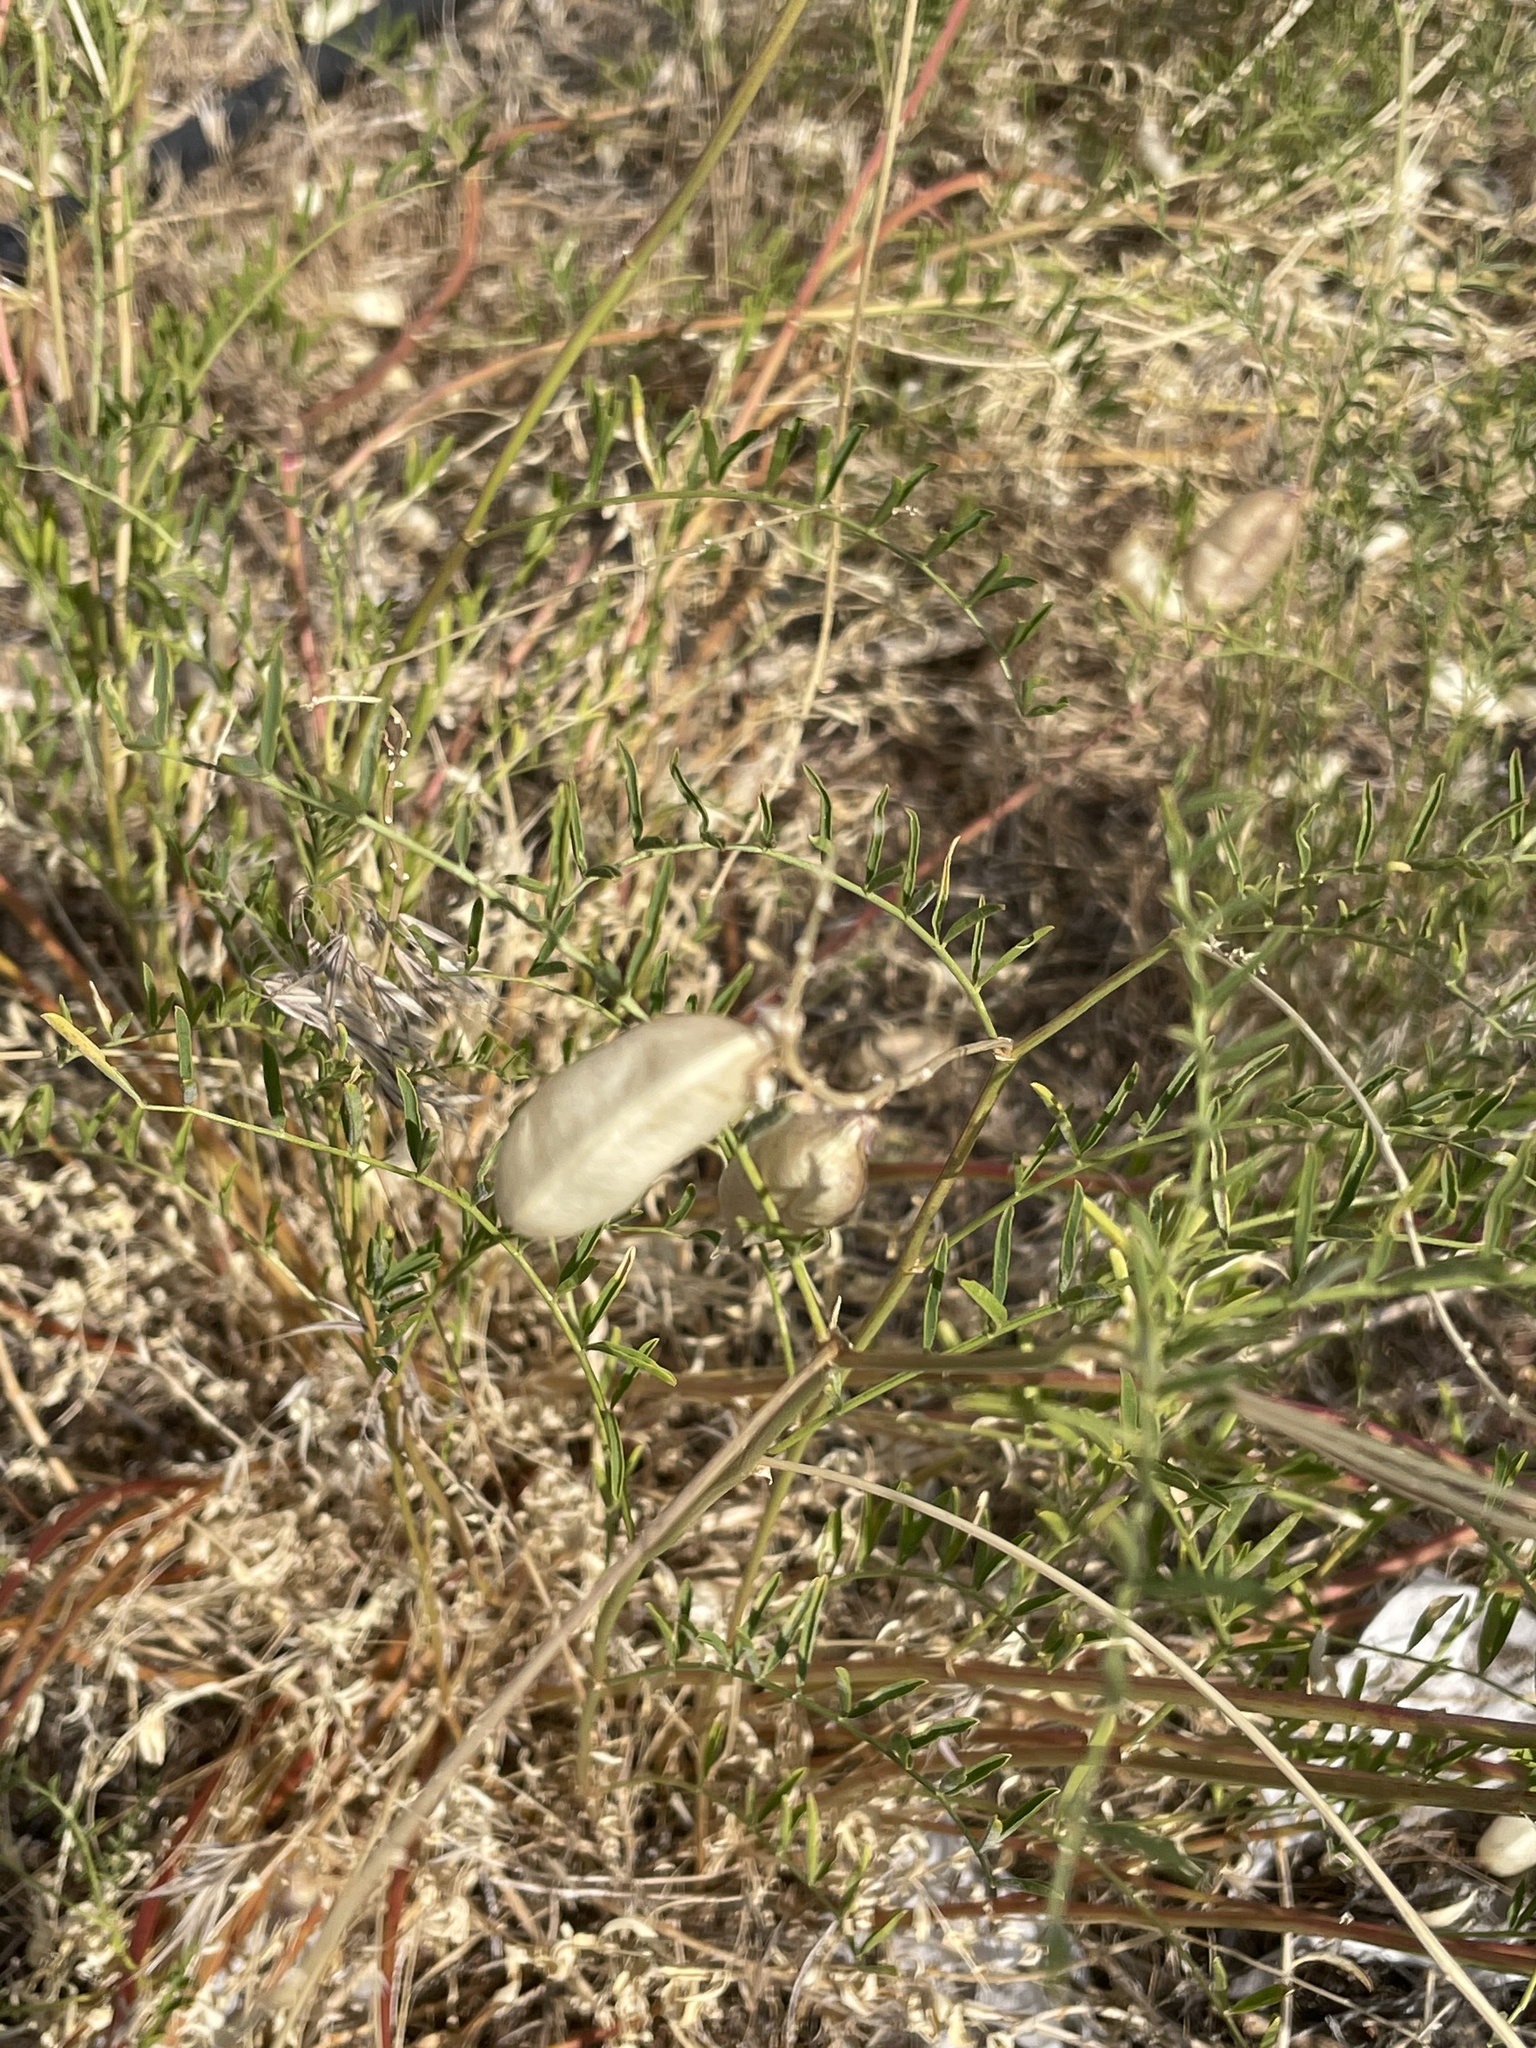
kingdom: Plantae
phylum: Tracheophyta
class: Magnoliopsida
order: Fabales
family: Fabaceae
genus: Astragalus
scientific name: Astragalus douglasii
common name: Jacumba milkvetch
